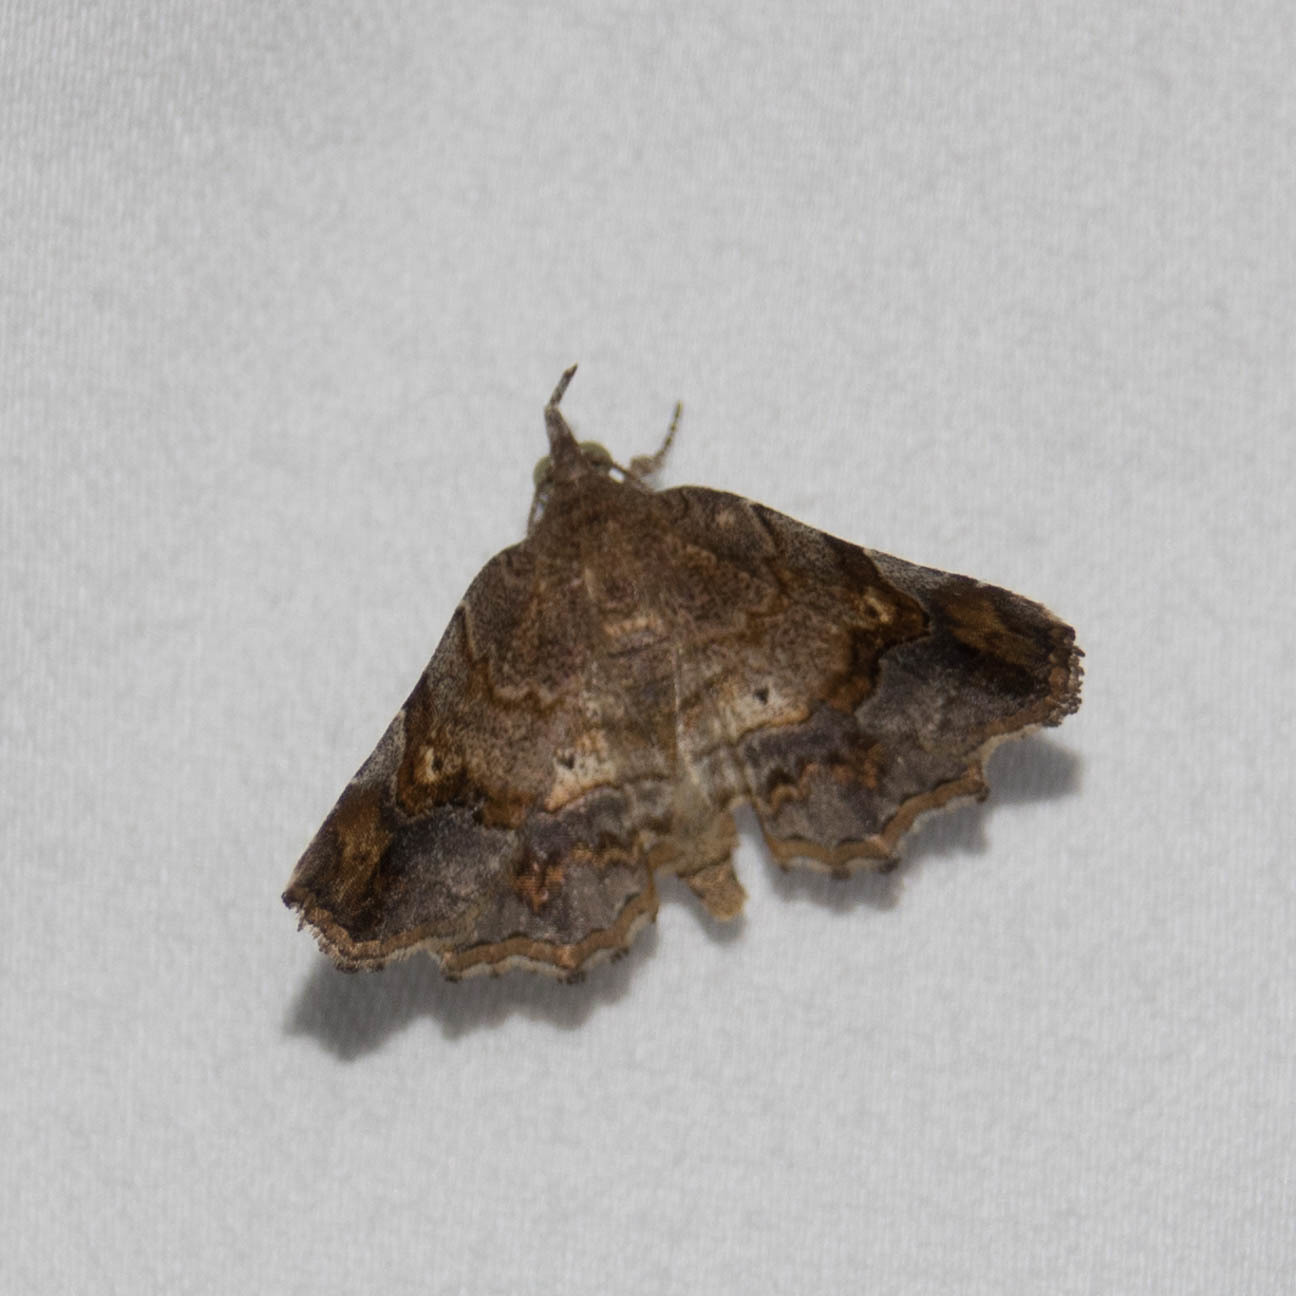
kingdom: Animalia
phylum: Arthropoda
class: Insecta
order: Lepidoptera
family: Erebidae
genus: Pangrapta
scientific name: Pangrapta decoralis
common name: Decorated owlet
